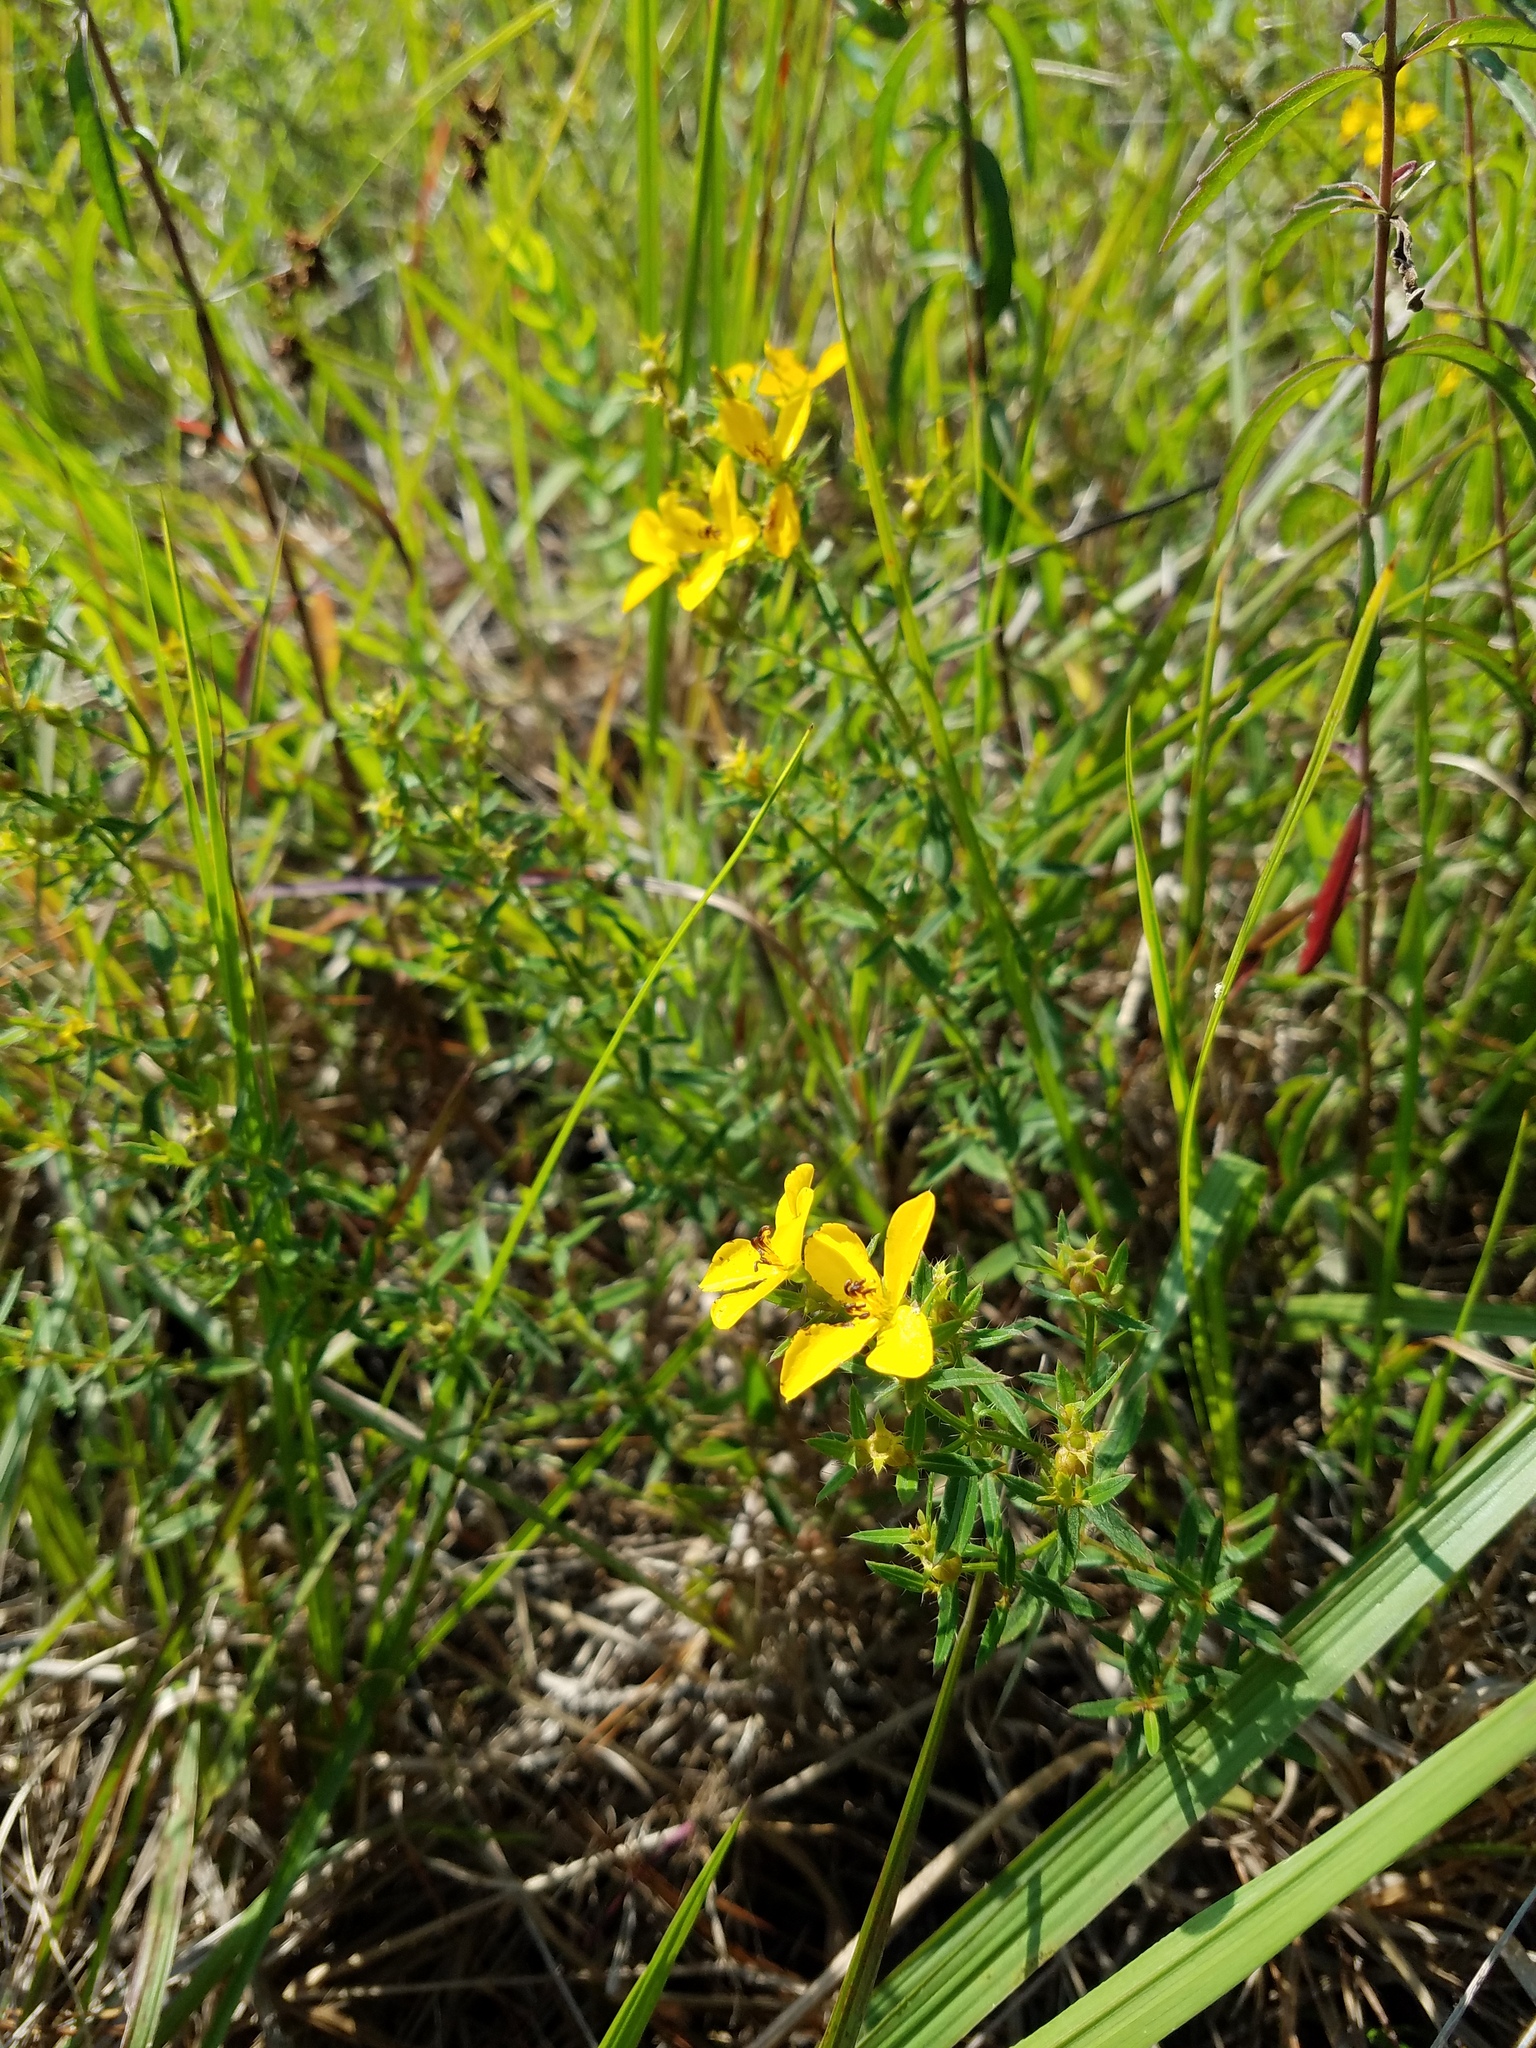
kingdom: Plantae
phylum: Tracheophyta
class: Magnoliopsida
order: Myrtales
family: Melastomataceae
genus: Rhexia
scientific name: Rhexia lutea
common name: Golden meadow-beauty
